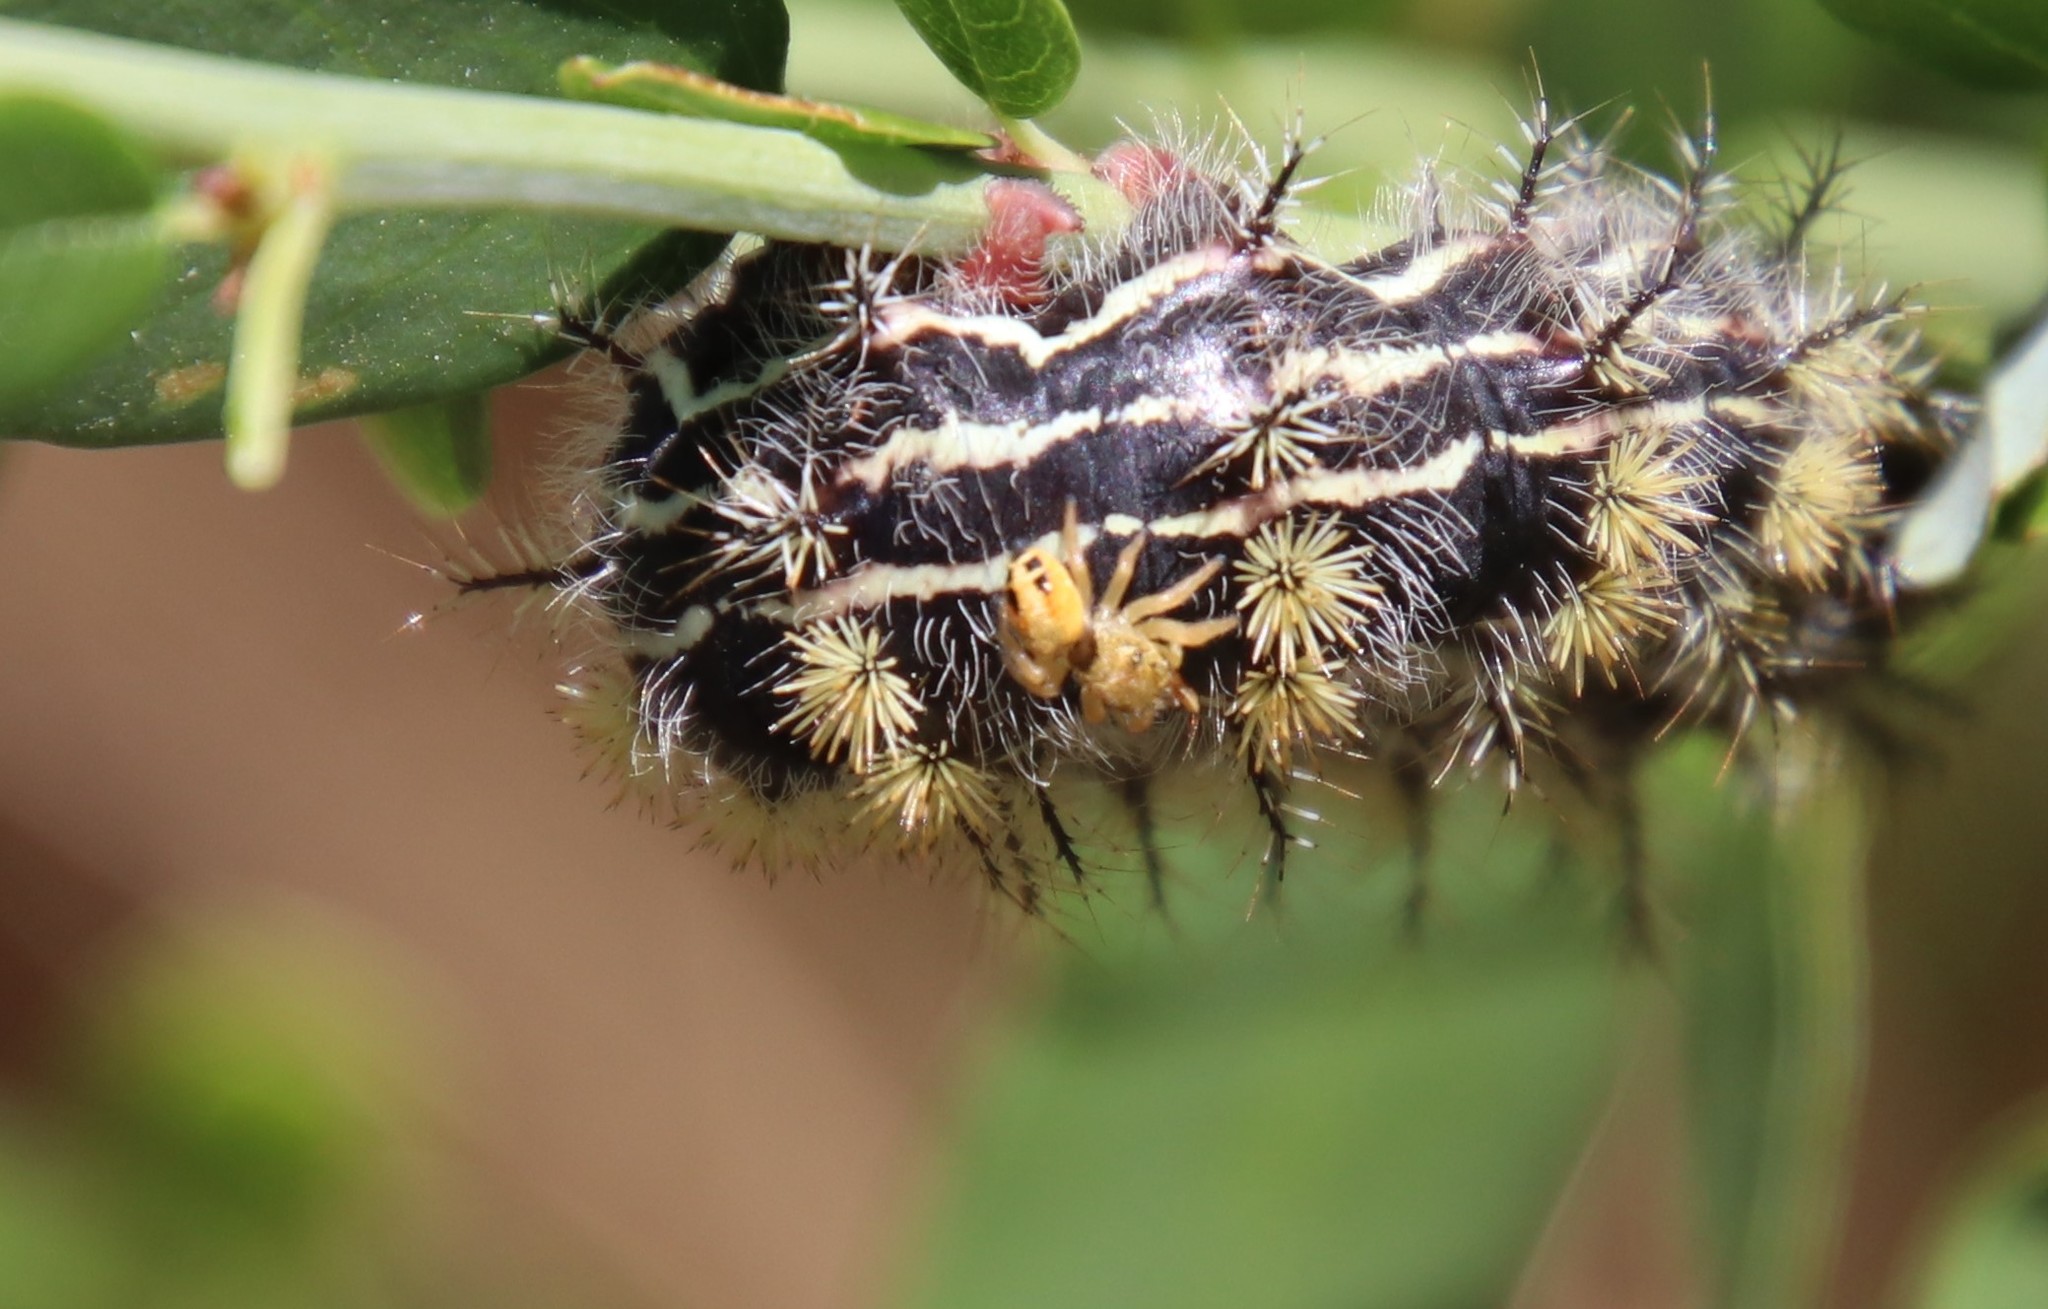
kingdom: Animalia
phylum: Arthropoda
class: Arachnida
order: Araneae
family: Salticidae
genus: Phidippus
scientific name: Phidippus nikites
